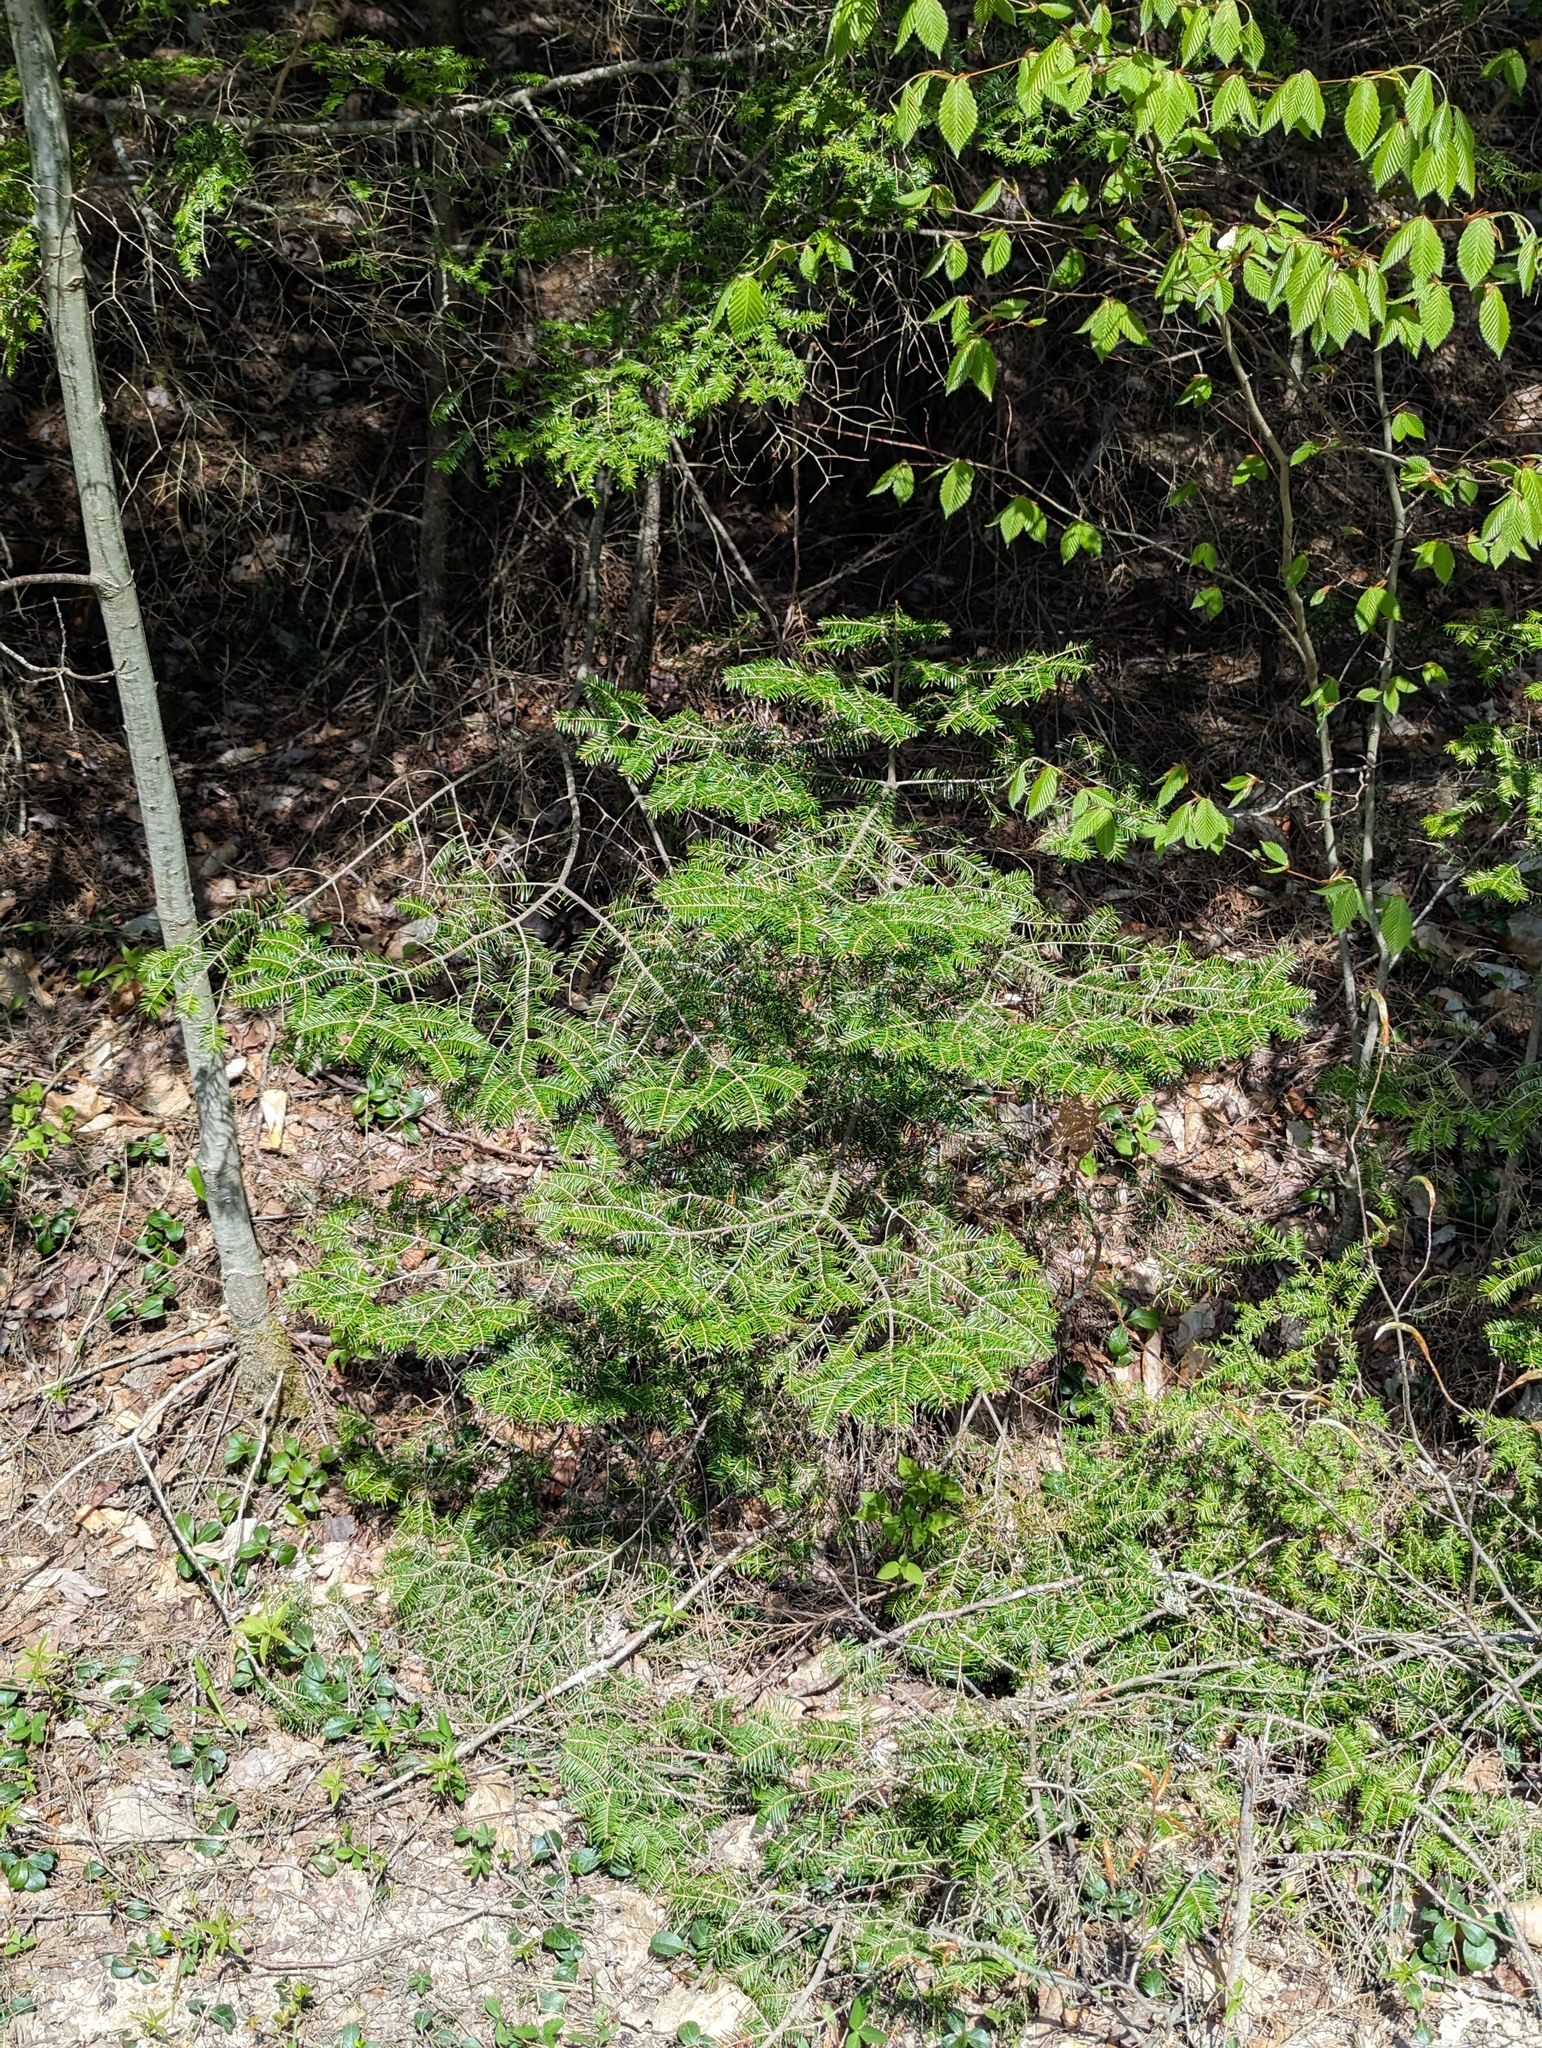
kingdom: Plantae
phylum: Tracheophyta
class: Pinopsida
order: Pinales
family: Pinaceae
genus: Abies
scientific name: Abies balsamea
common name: Balsam fir
